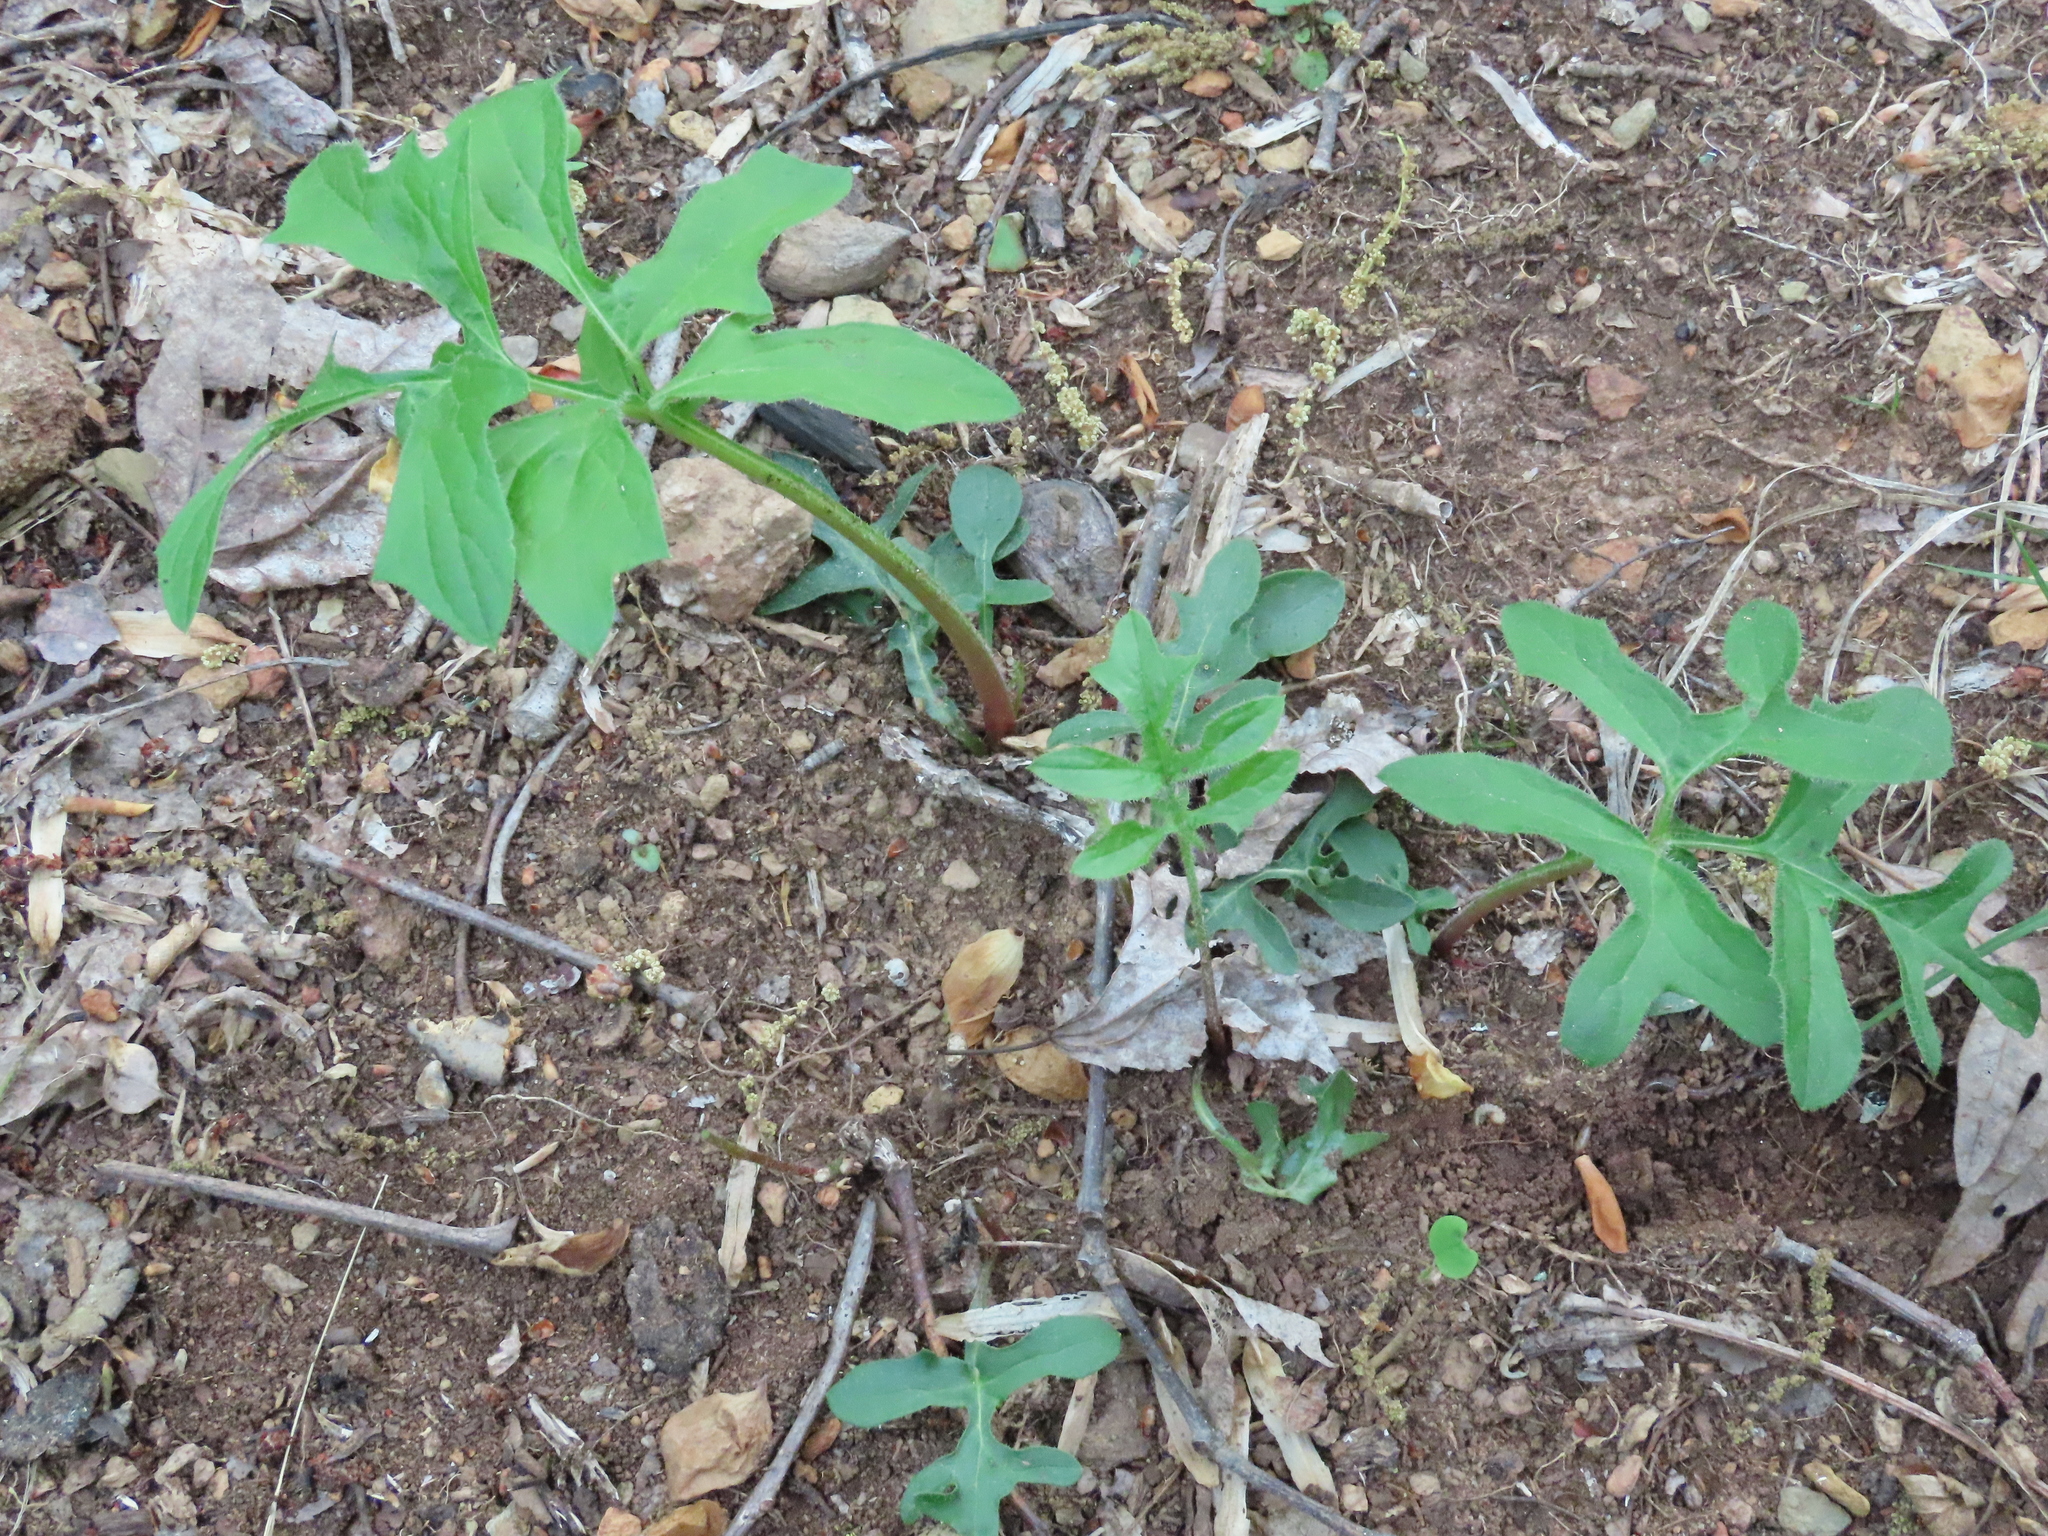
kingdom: Plantae
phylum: Tracheophyta
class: Magnoliopsida
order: Asterales
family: Asteraceae
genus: Nabalus
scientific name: Nabalus serpentarius
